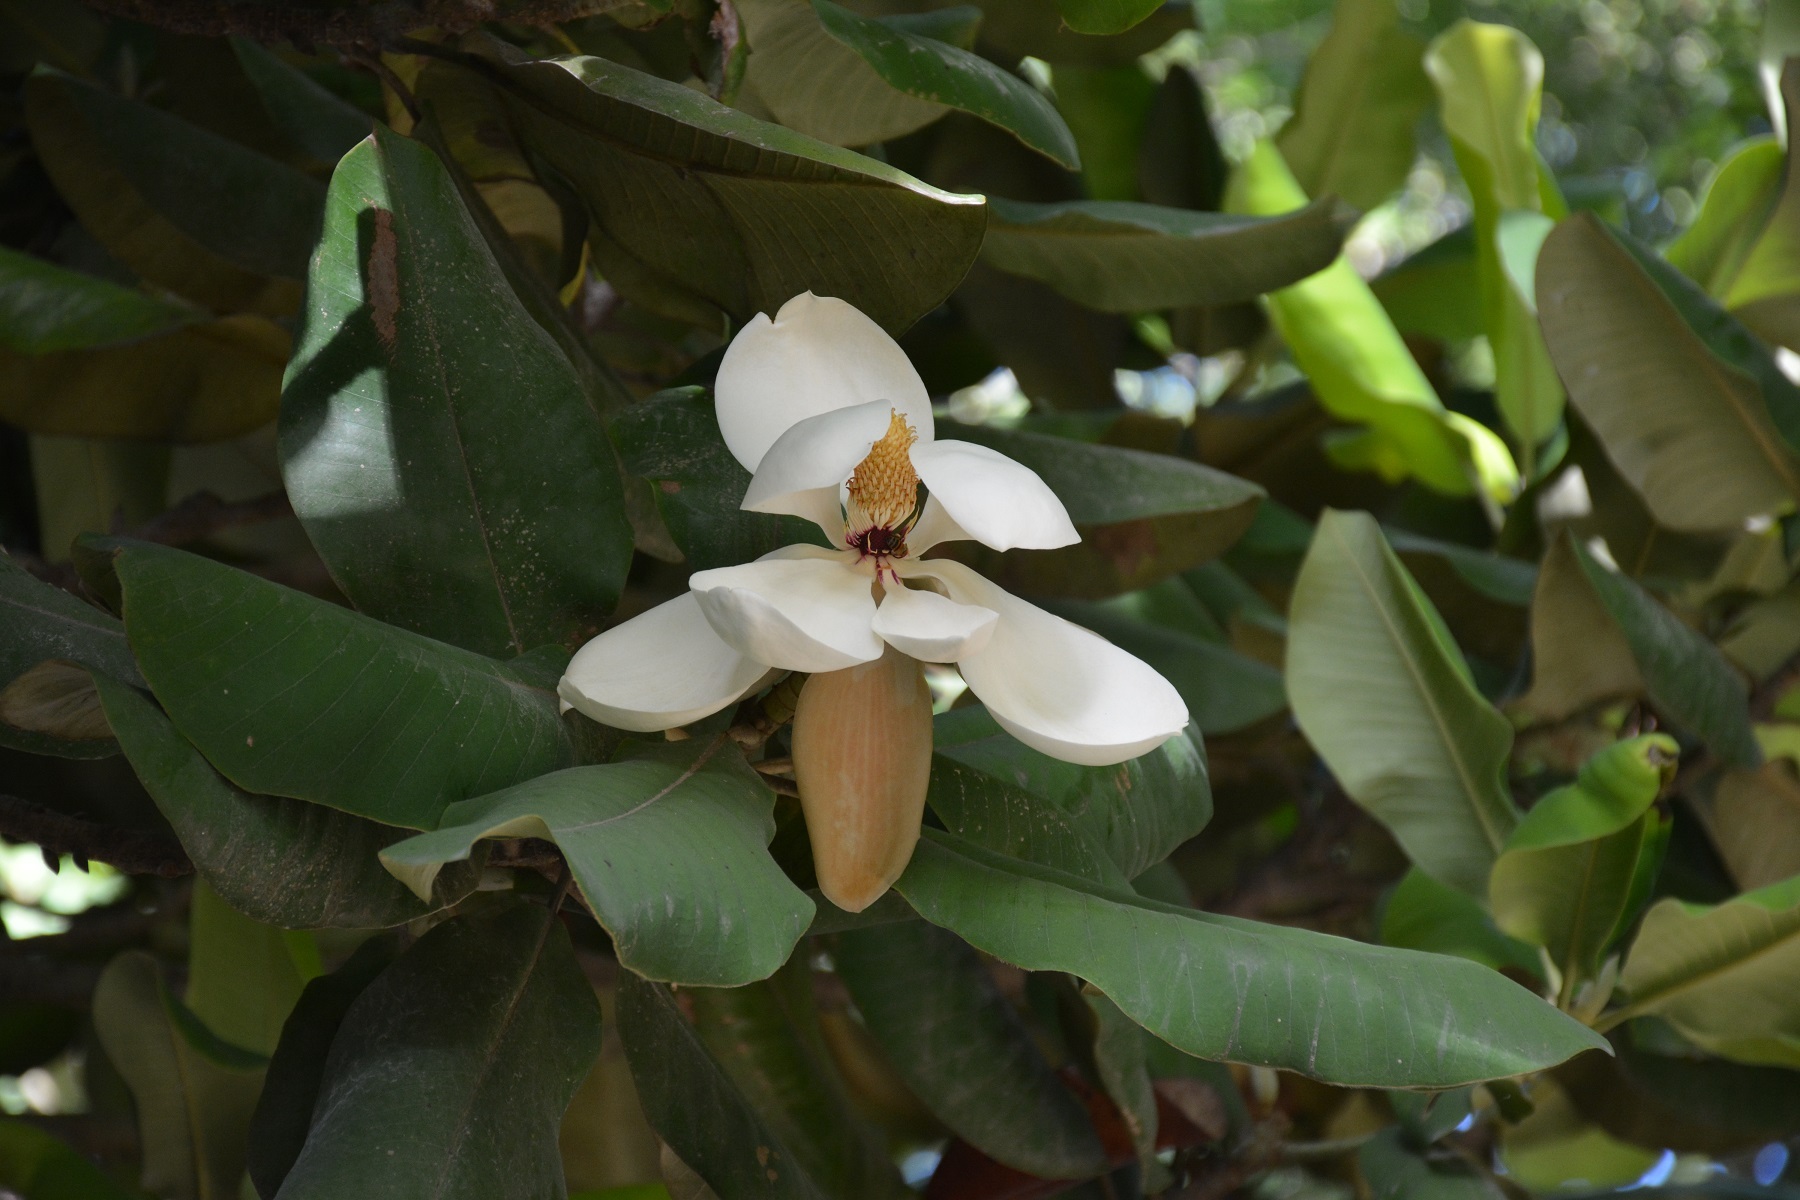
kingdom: Plantae
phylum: Tracheophyta
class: Magnoliopsida
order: Magnoliales
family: Magnoliaceae
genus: Magnolia
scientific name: Magnolia sharpii
